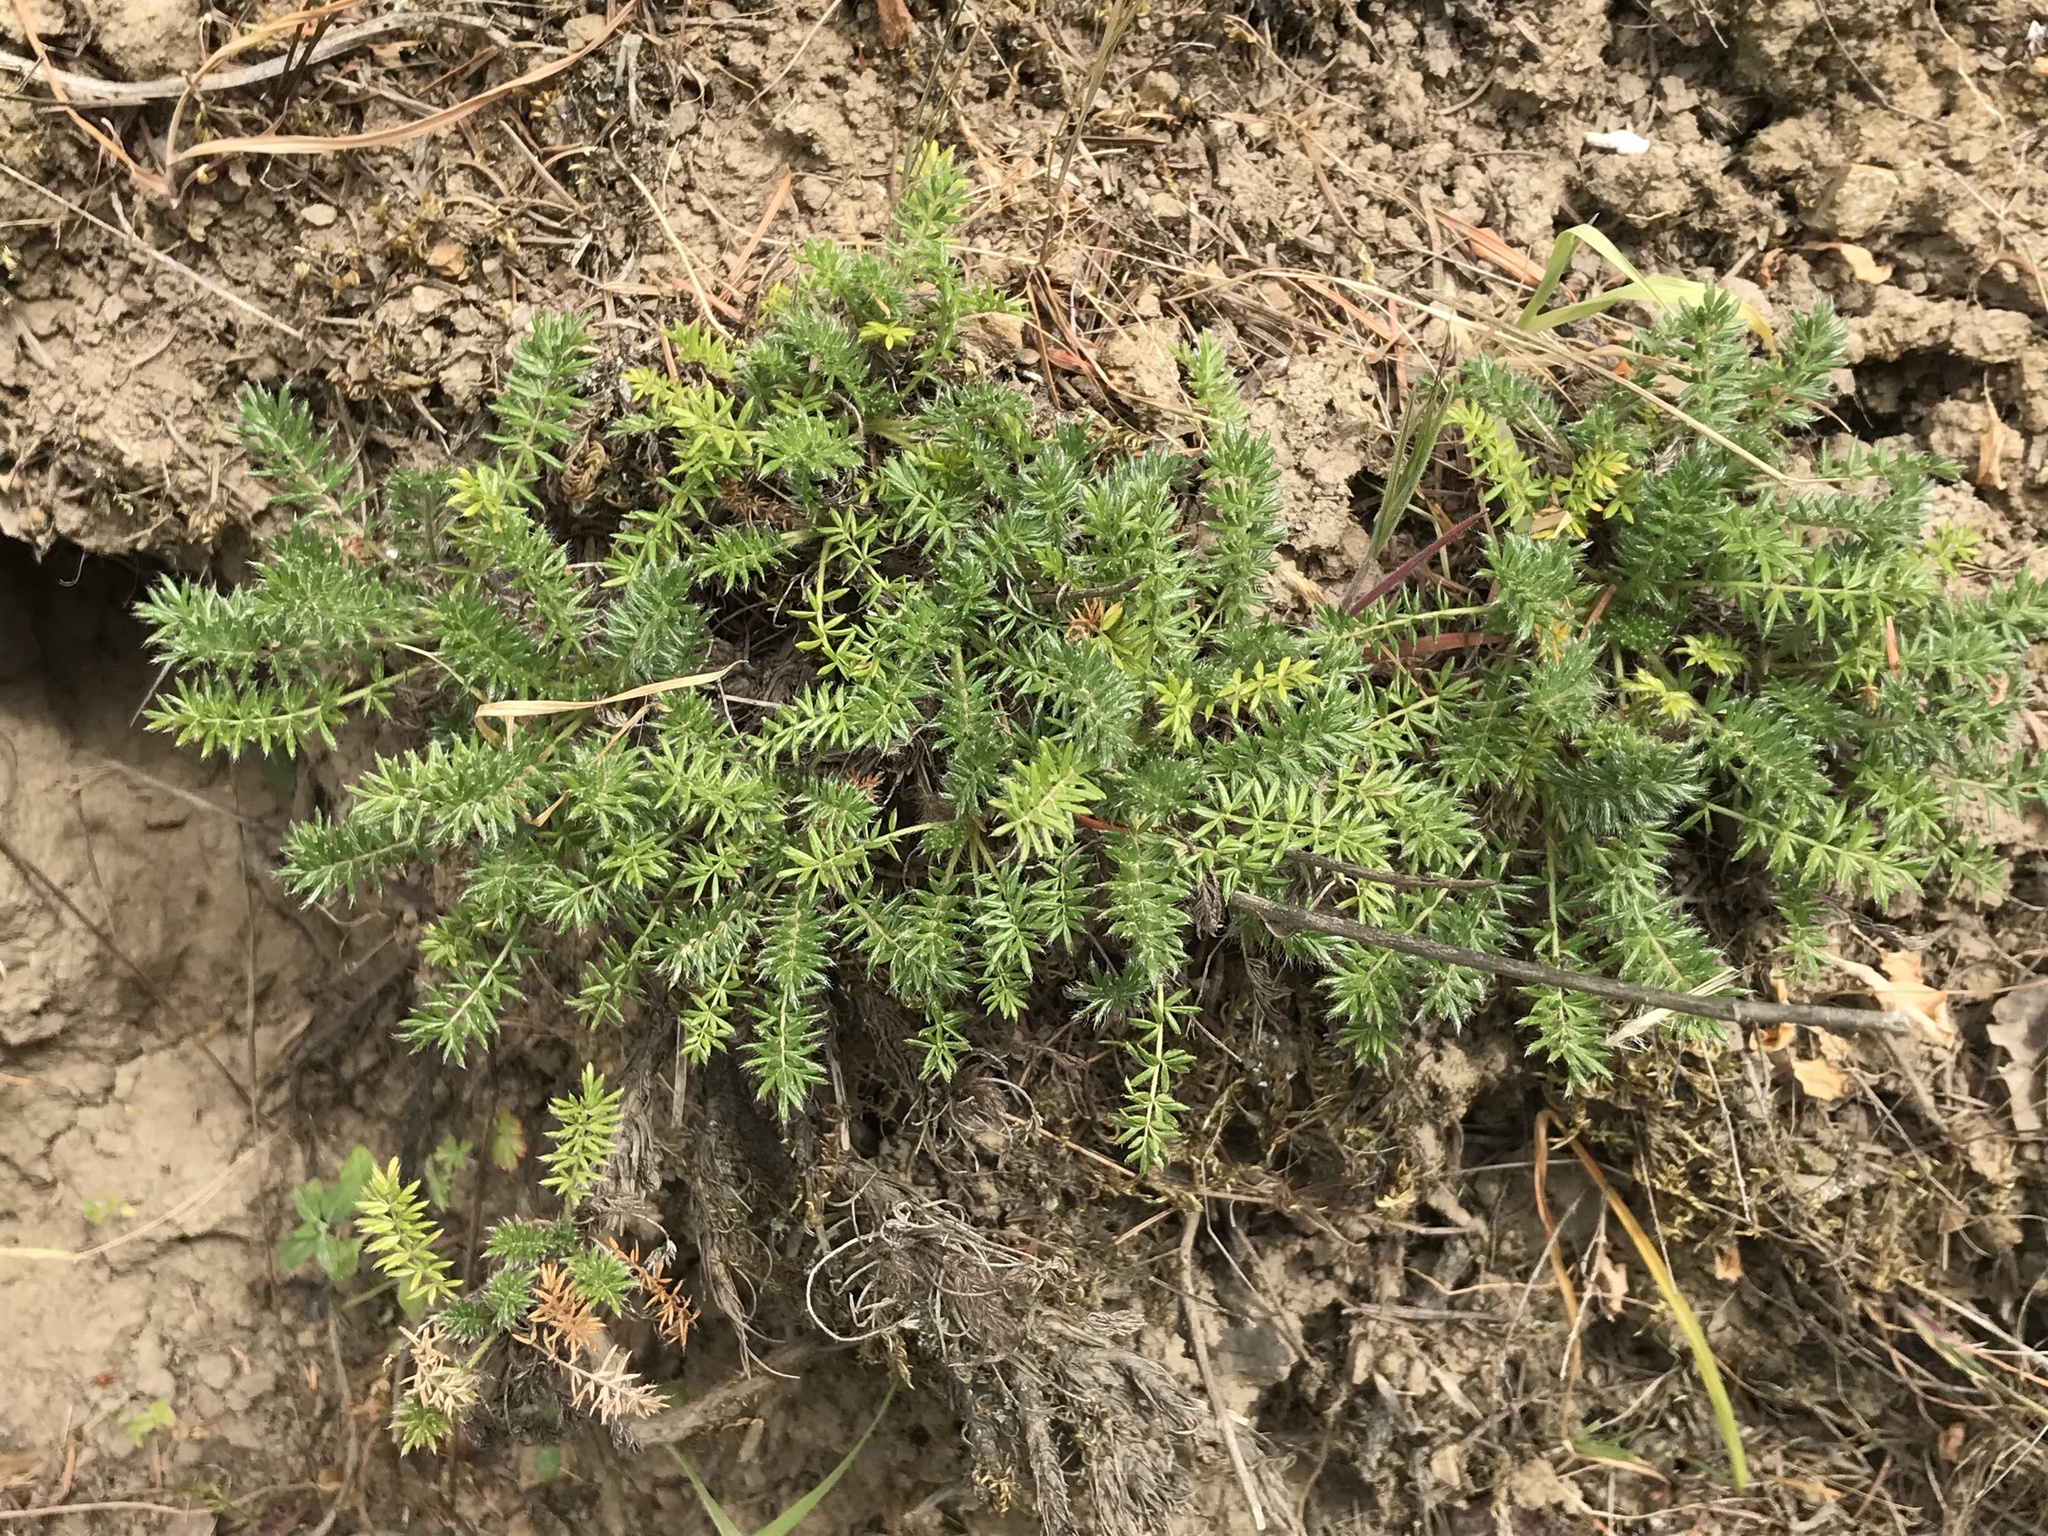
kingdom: Plantae
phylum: Tracheophyta
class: Magnoliopsida
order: Rosales
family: Rosaceae
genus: Acaena
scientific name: Acaena pinnatifida
